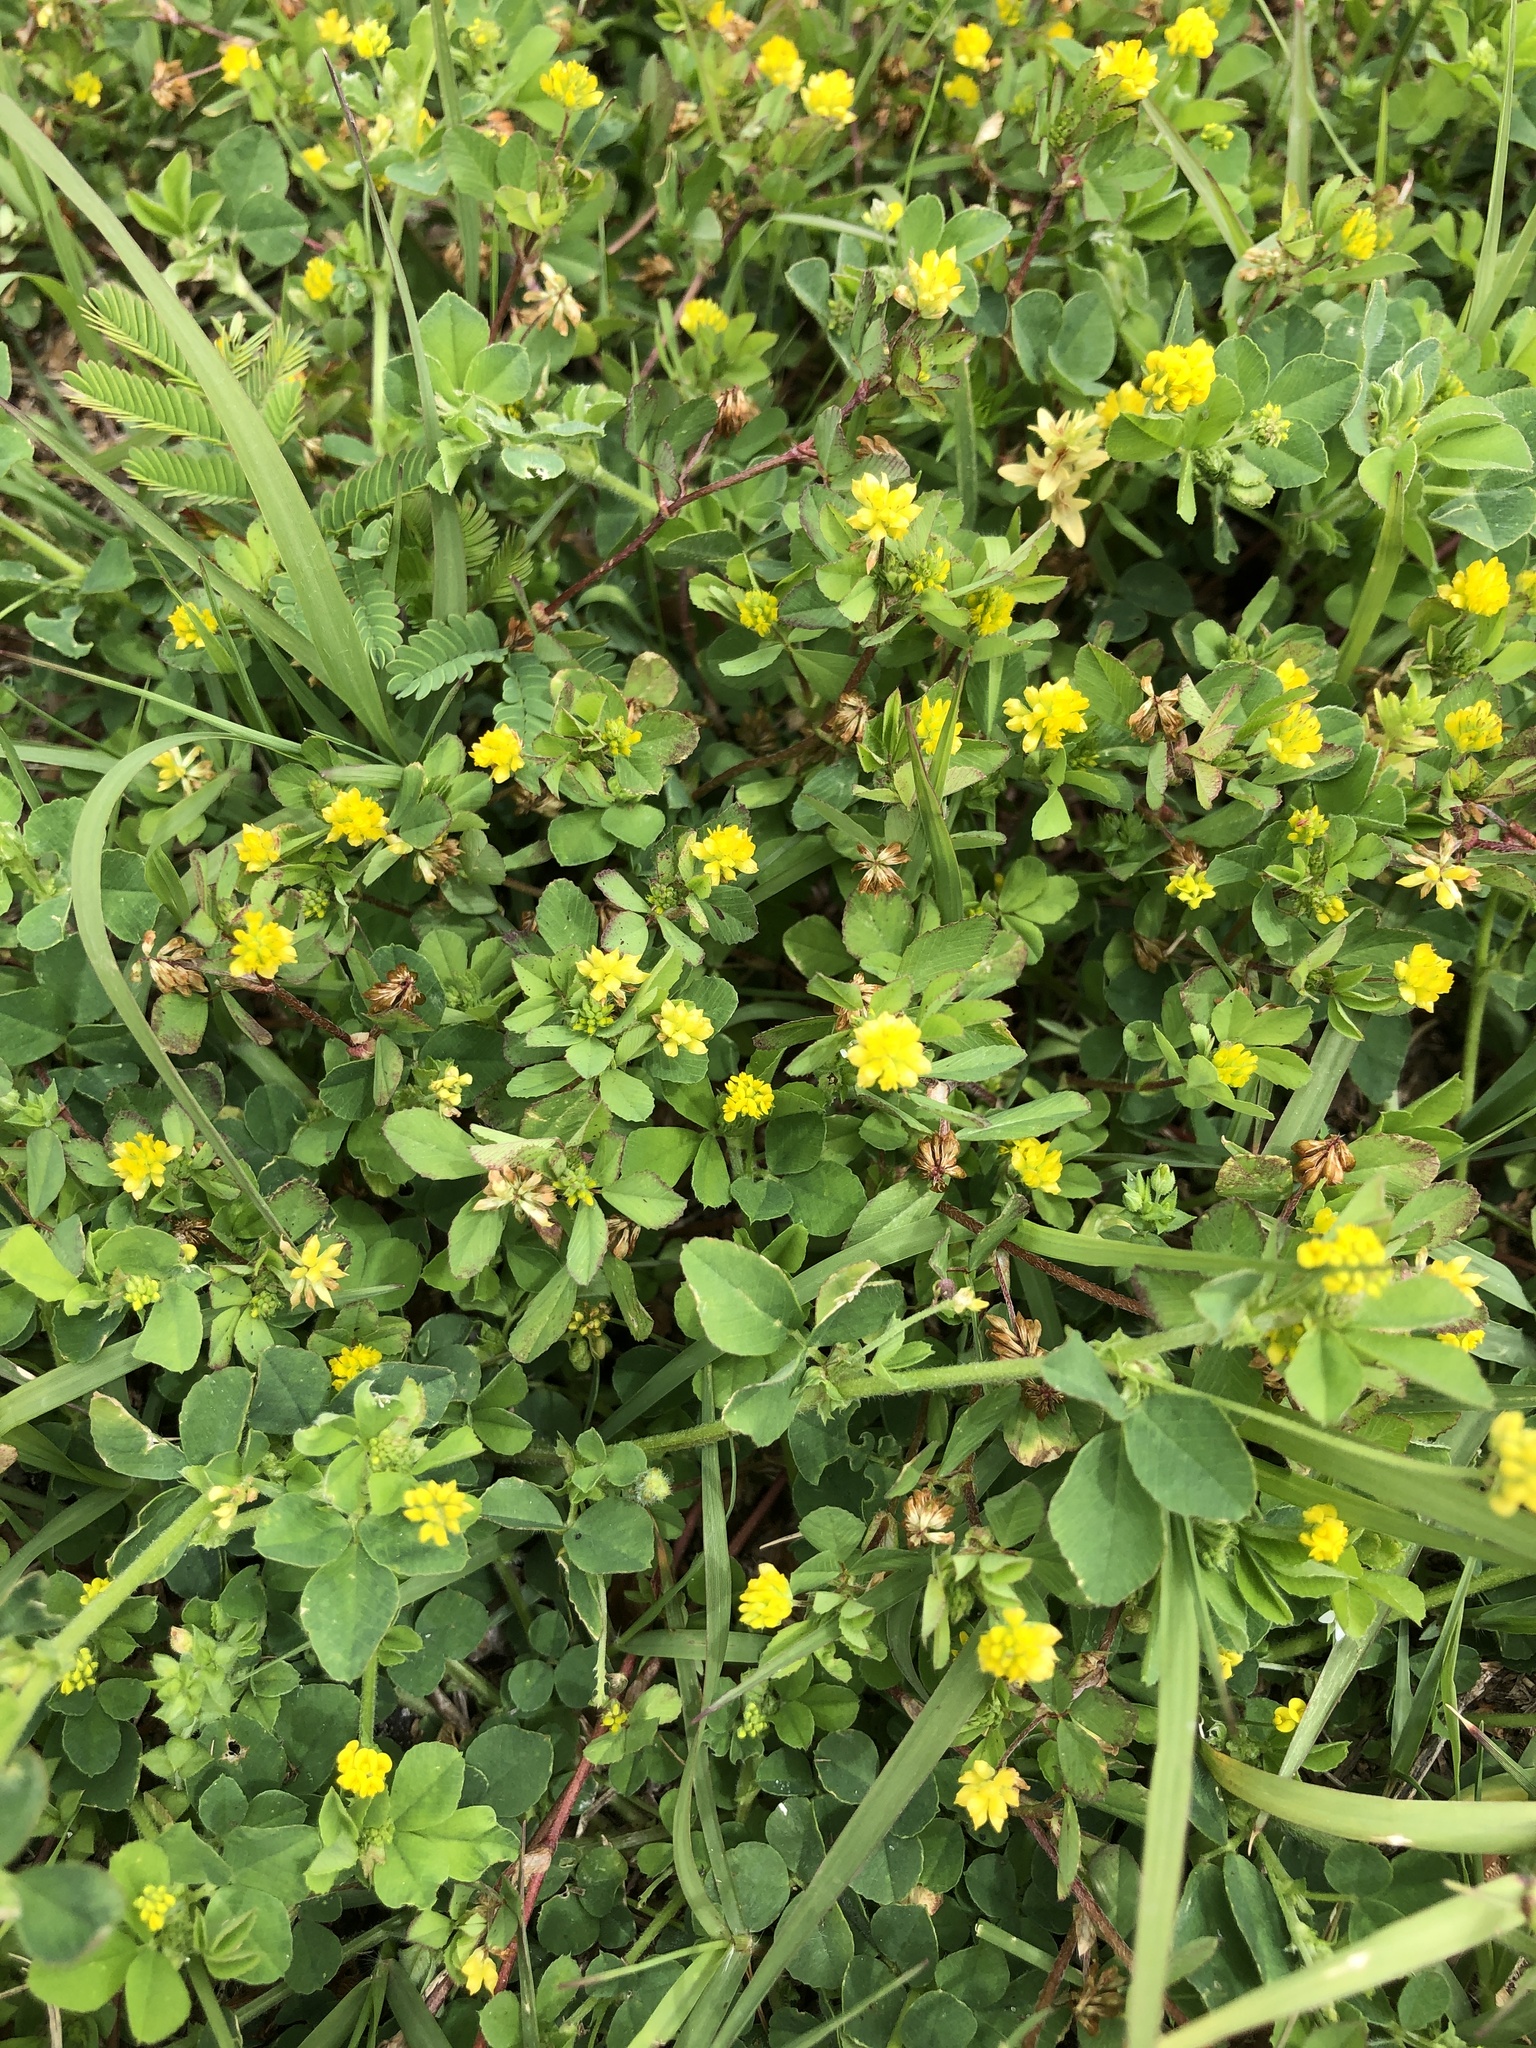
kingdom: Plantae
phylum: Tracheophyta
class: Magnoliopsida
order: Fabales
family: Fabaceae
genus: Trifolium
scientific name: Trifolium dubium
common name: Suckling clover
